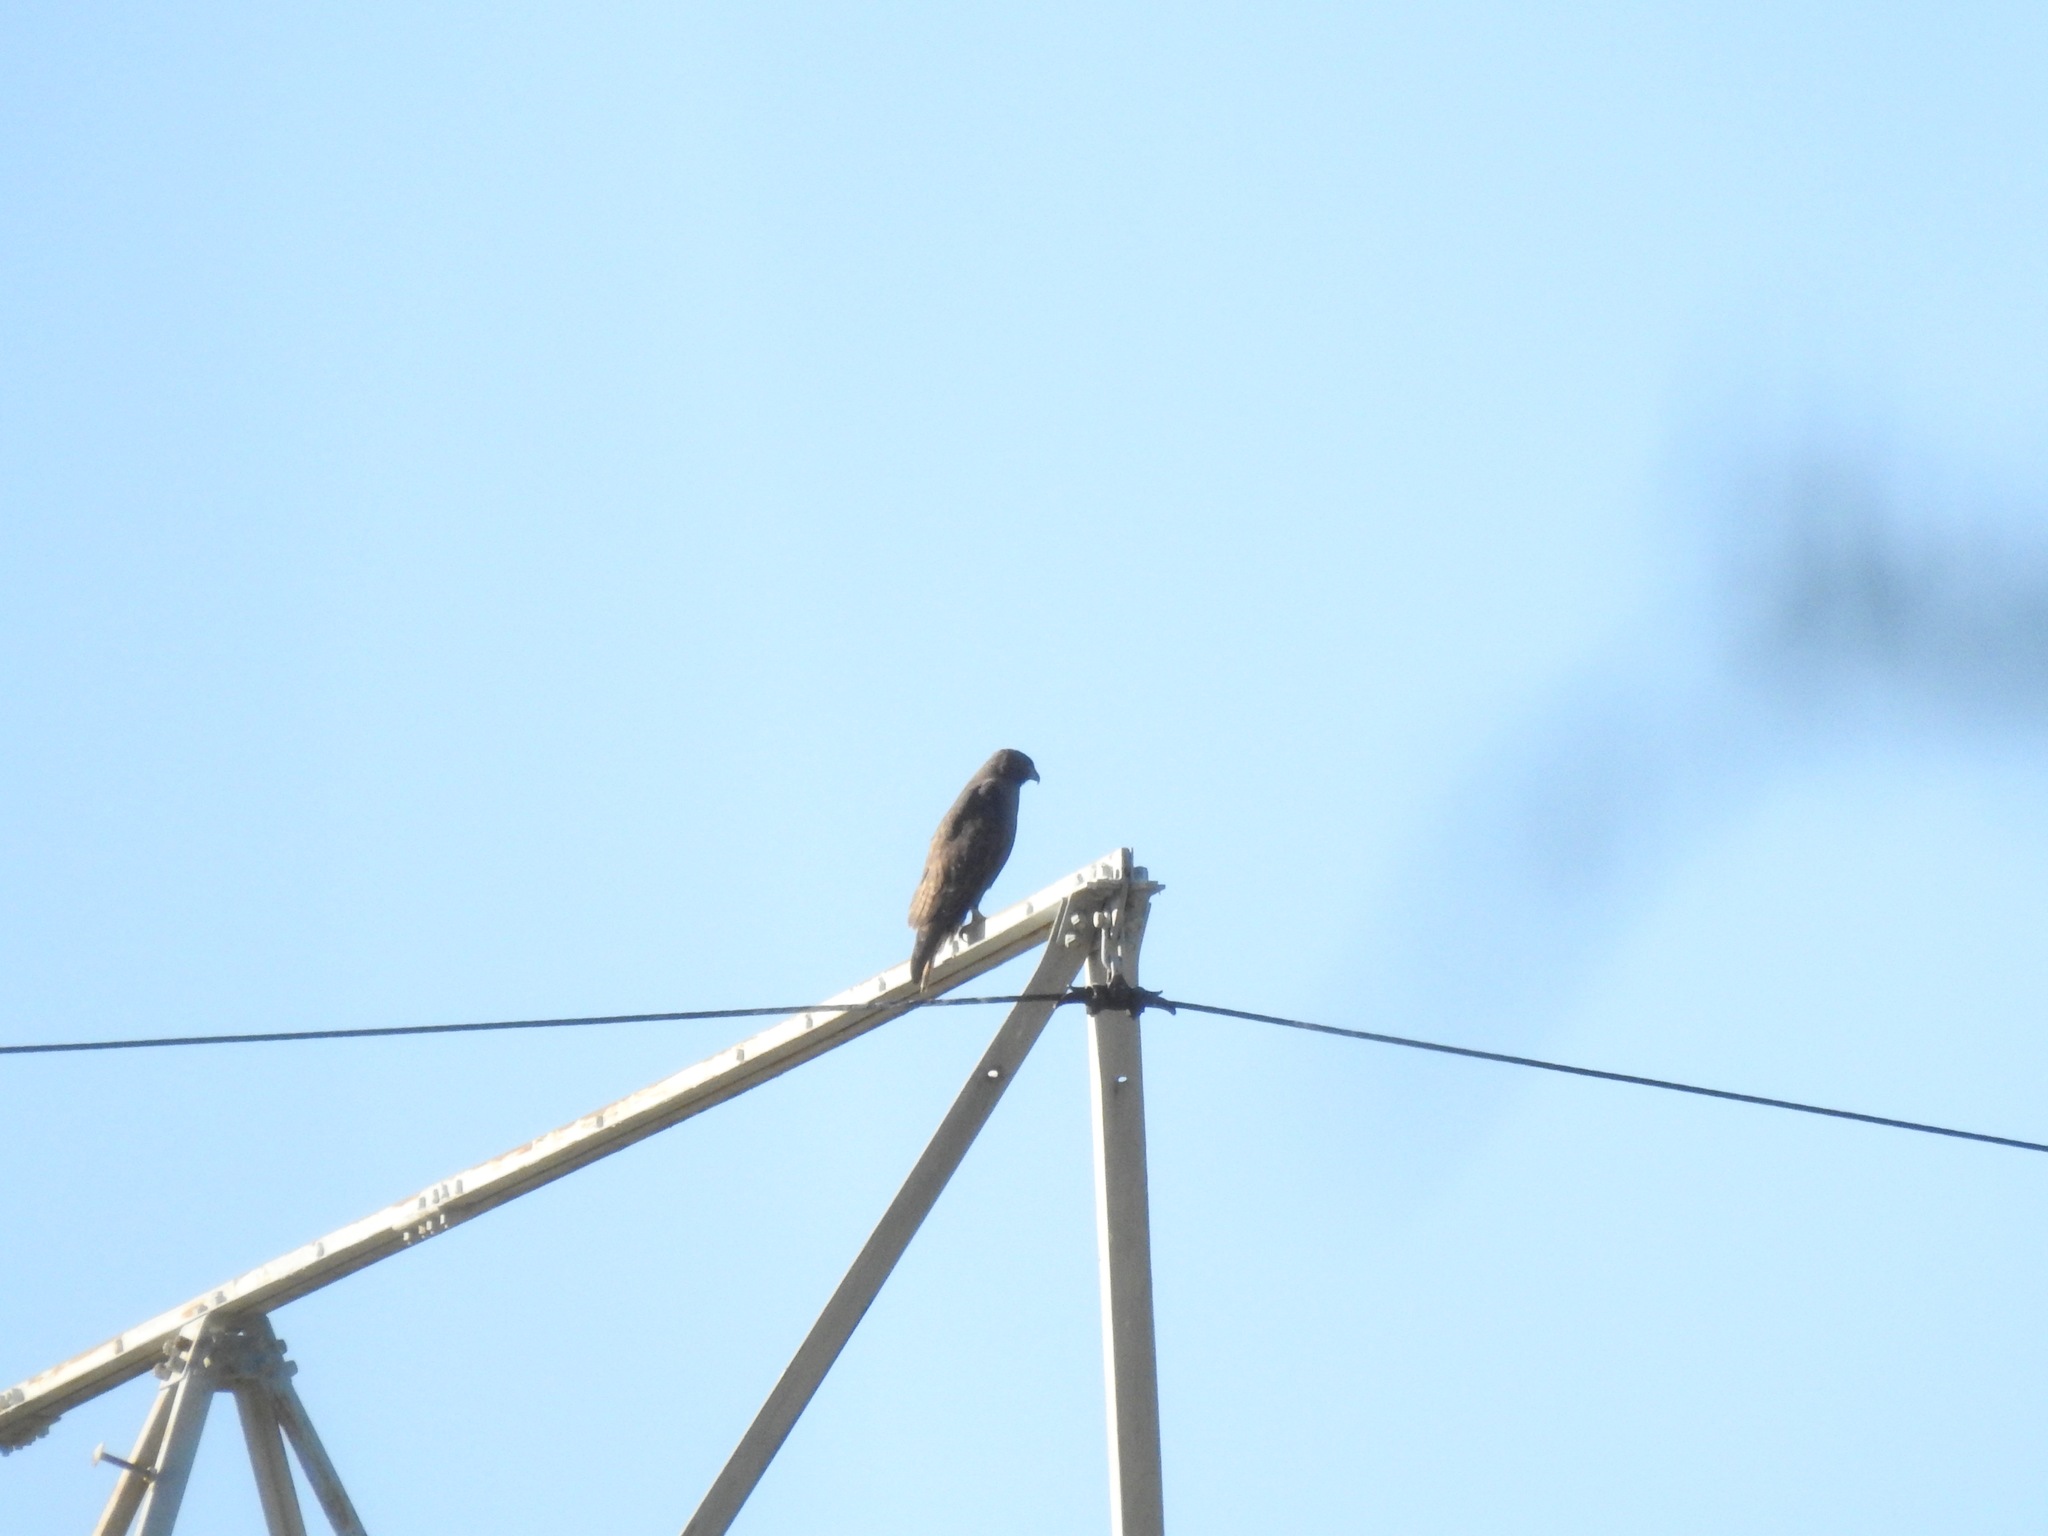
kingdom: Animalia
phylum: Chordata
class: Aves
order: Accipitriformes
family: Accipitridae
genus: Buteo
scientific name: Buteo jamaicensis
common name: Red-tailed hawk
